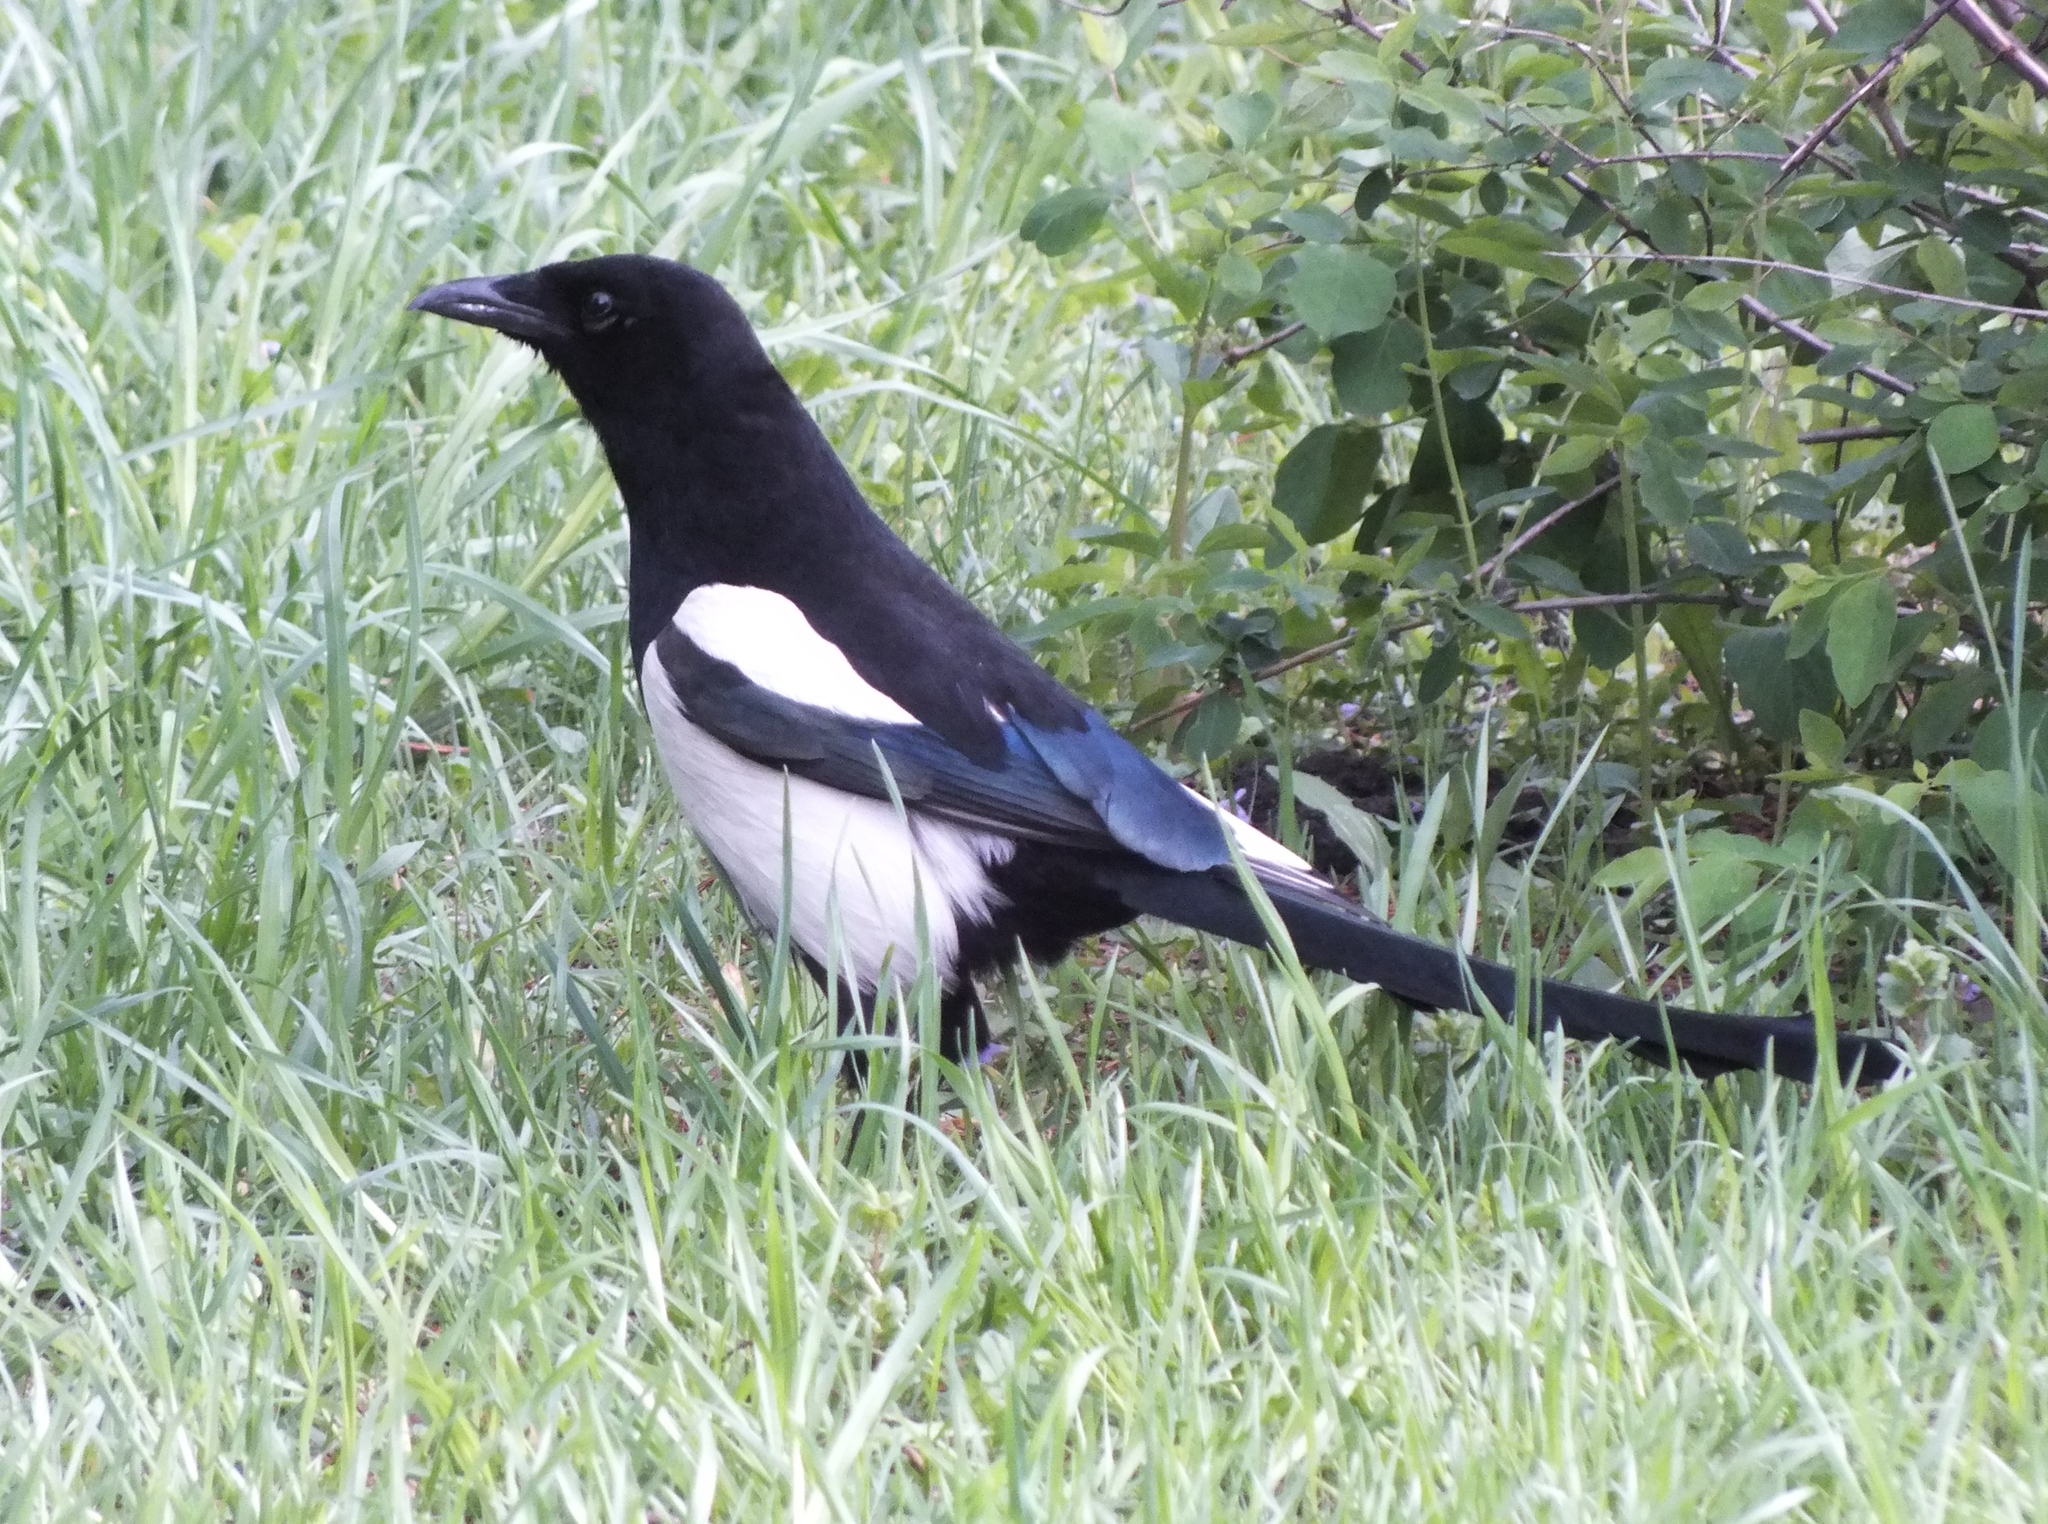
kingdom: Animalia
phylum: Chordata
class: Aves
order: Passeriformes
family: Corvidae
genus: Pica
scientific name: Pica pica
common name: Eurasian magpie
